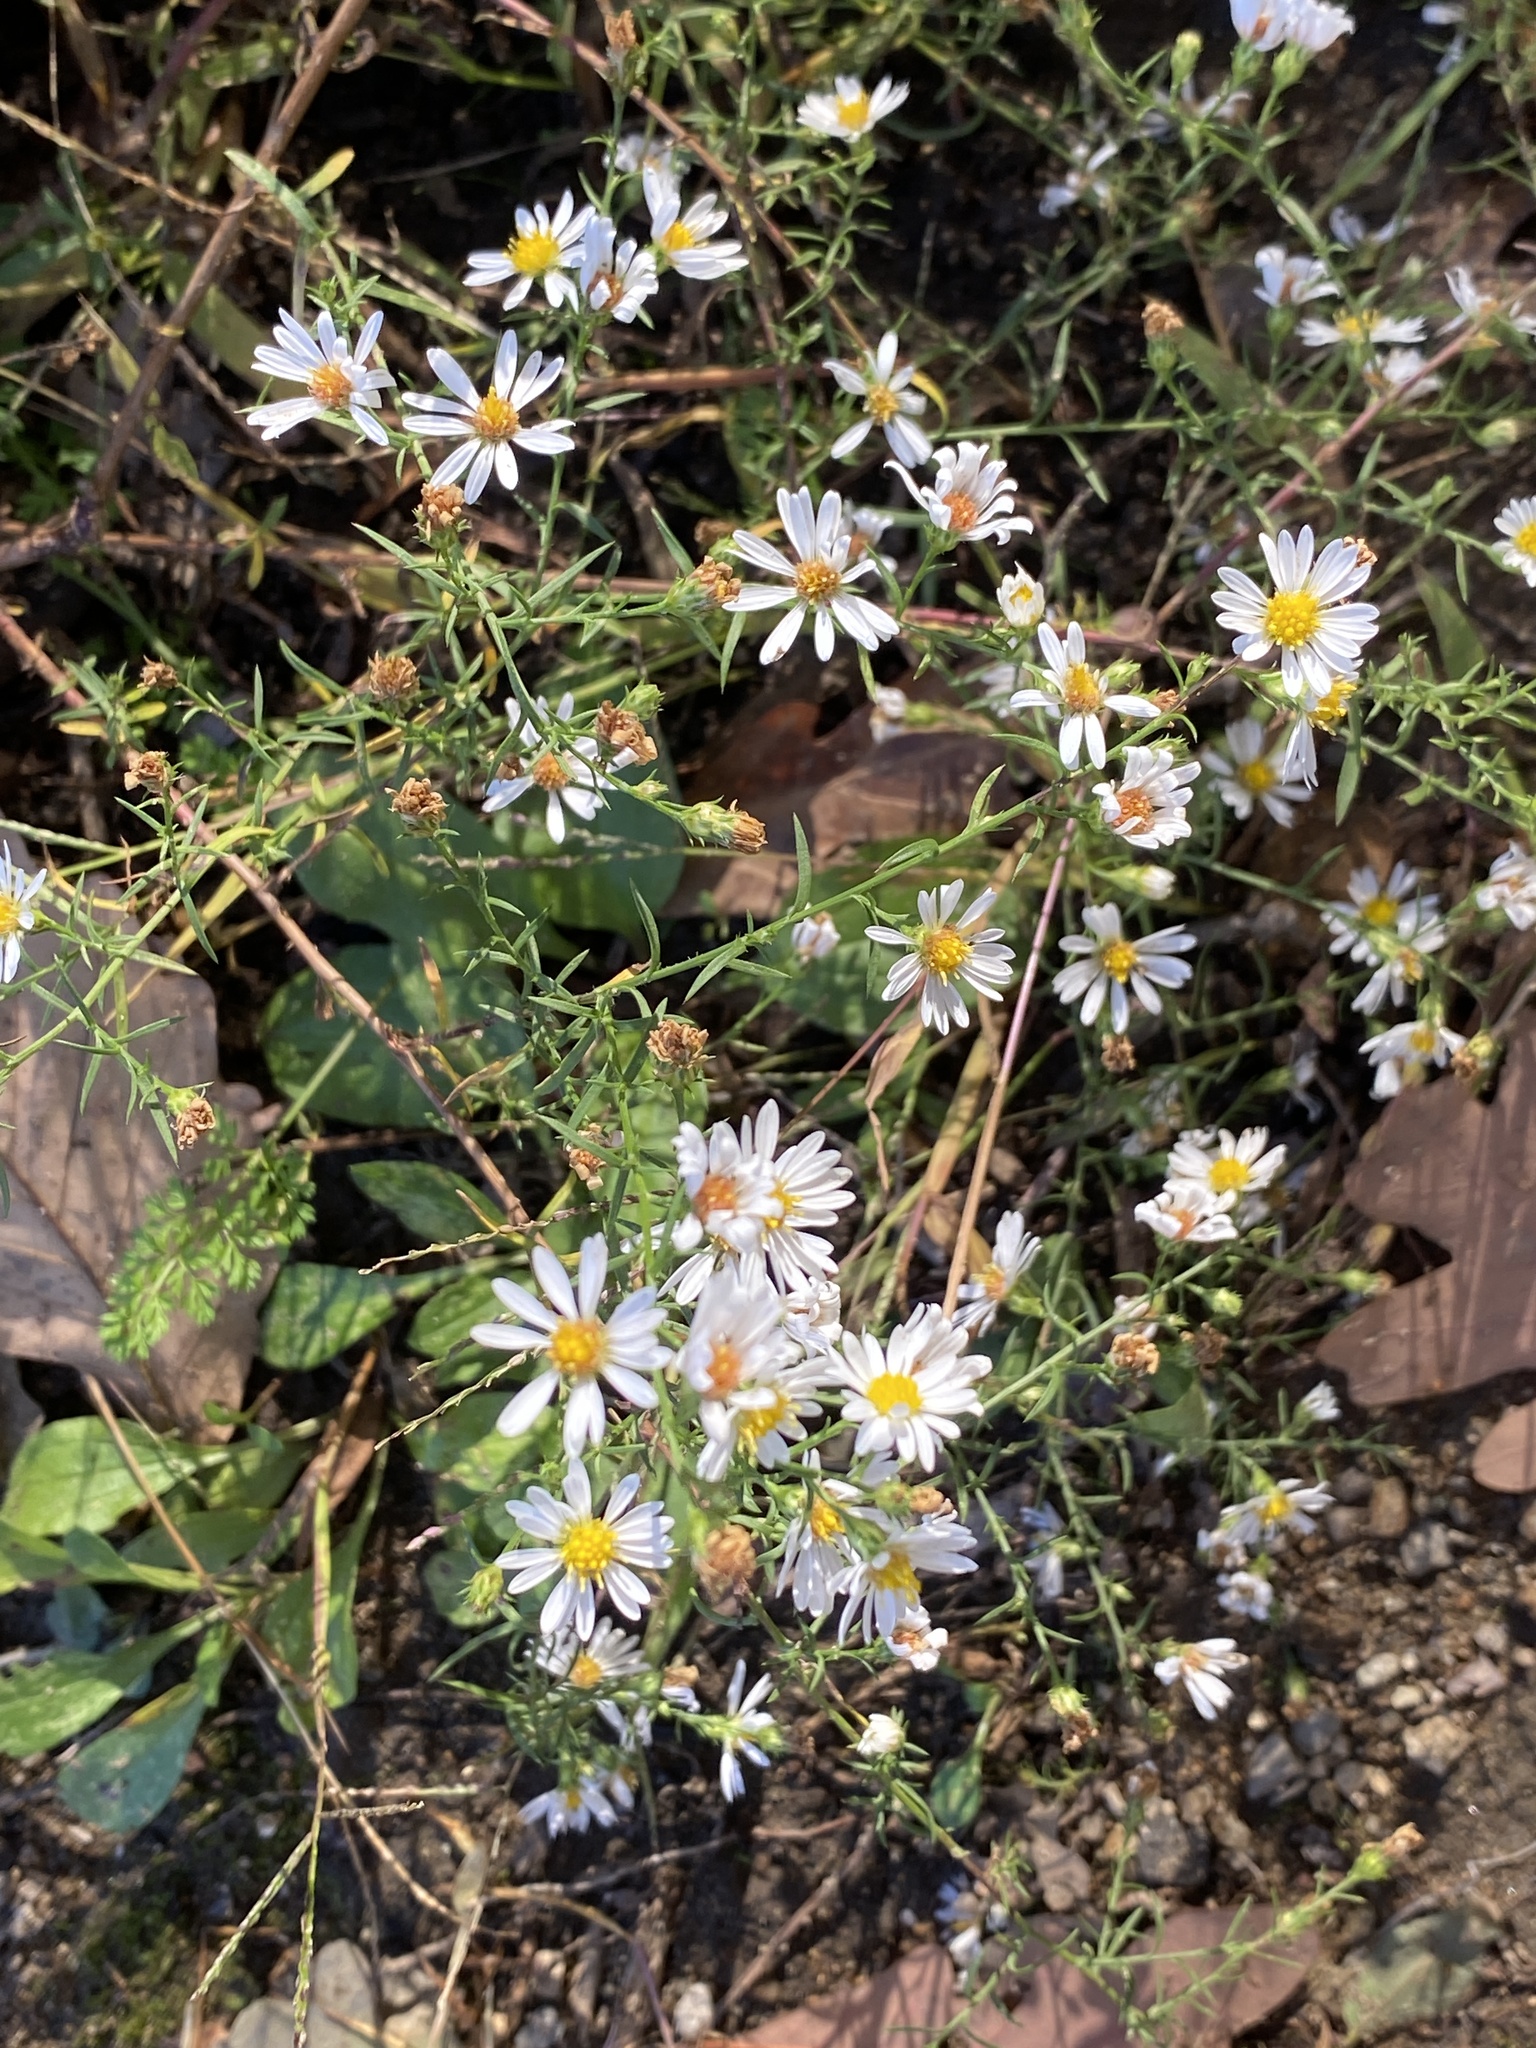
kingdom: Plantae
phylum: Tracheophyta
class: Magnoliopsida
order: Asterales
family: Asteraceae
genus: Symphyotrichum
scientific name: Symphyotrichum pilosum
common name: Awl aster
